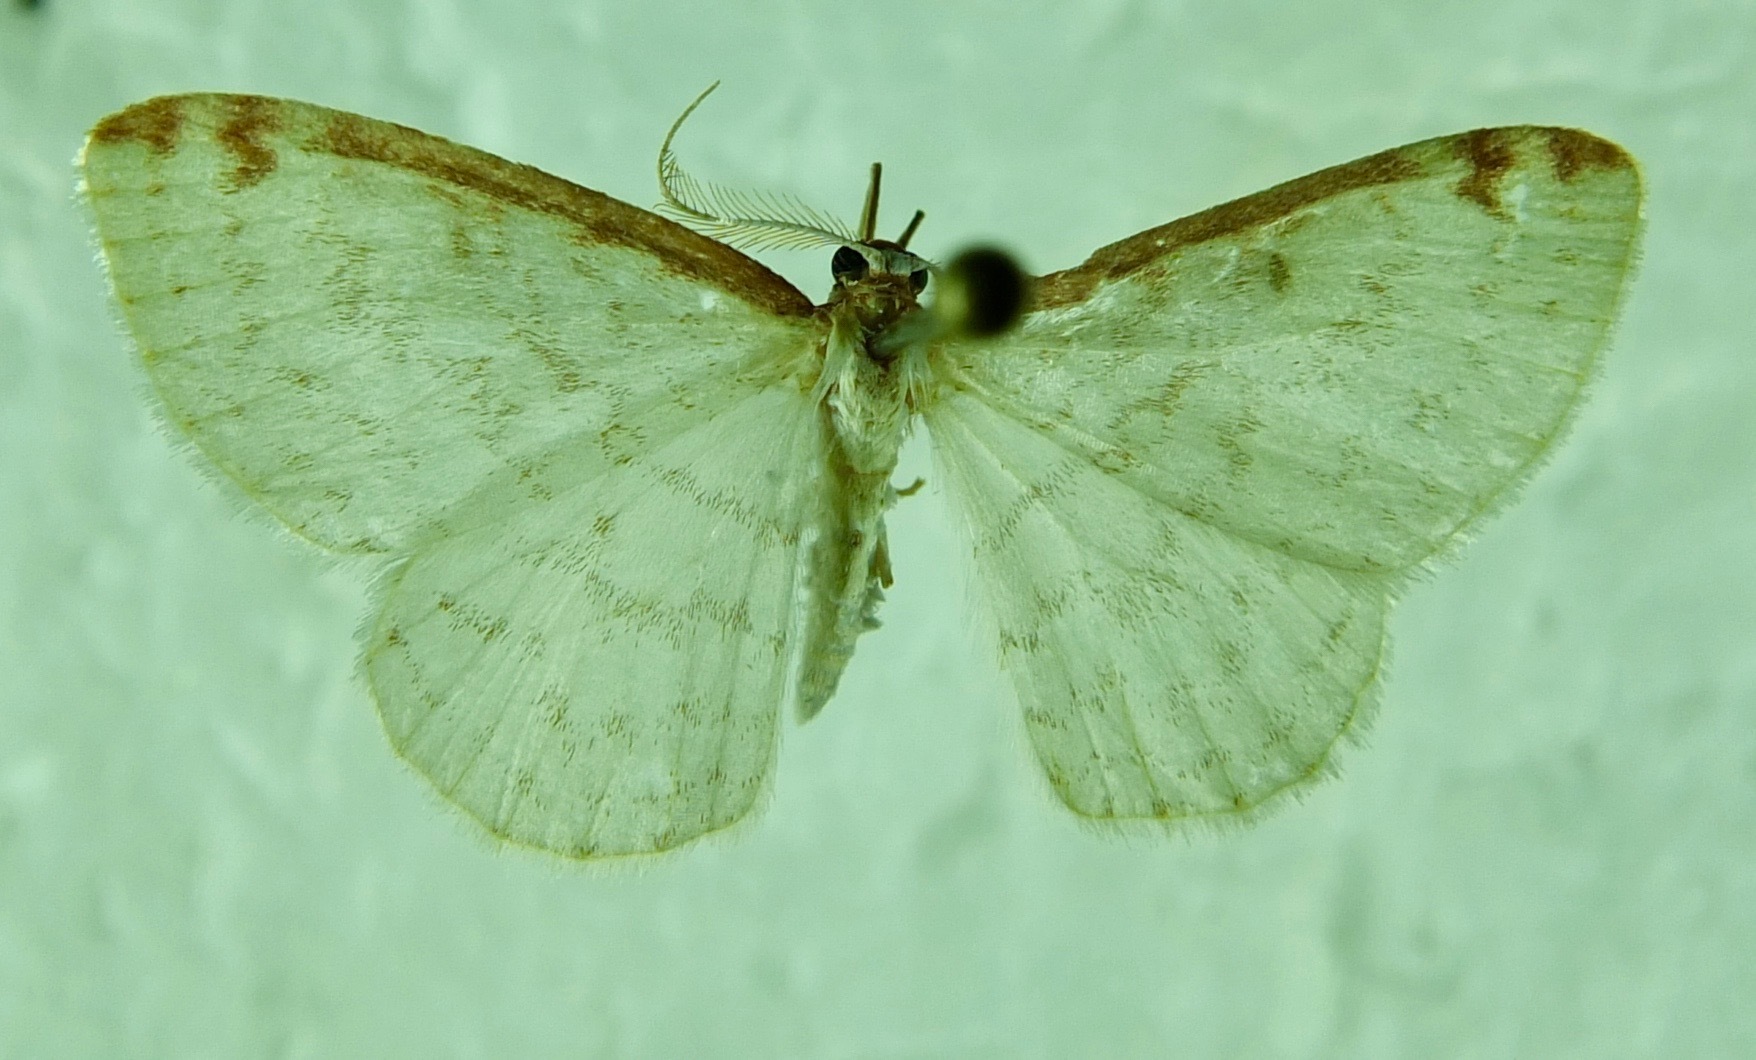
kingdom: Animalia
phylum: Arthropoda
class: Insecta
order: Lepidoptera
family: Geometridae
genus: Epiphryne
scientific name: Epiphryne undosata
